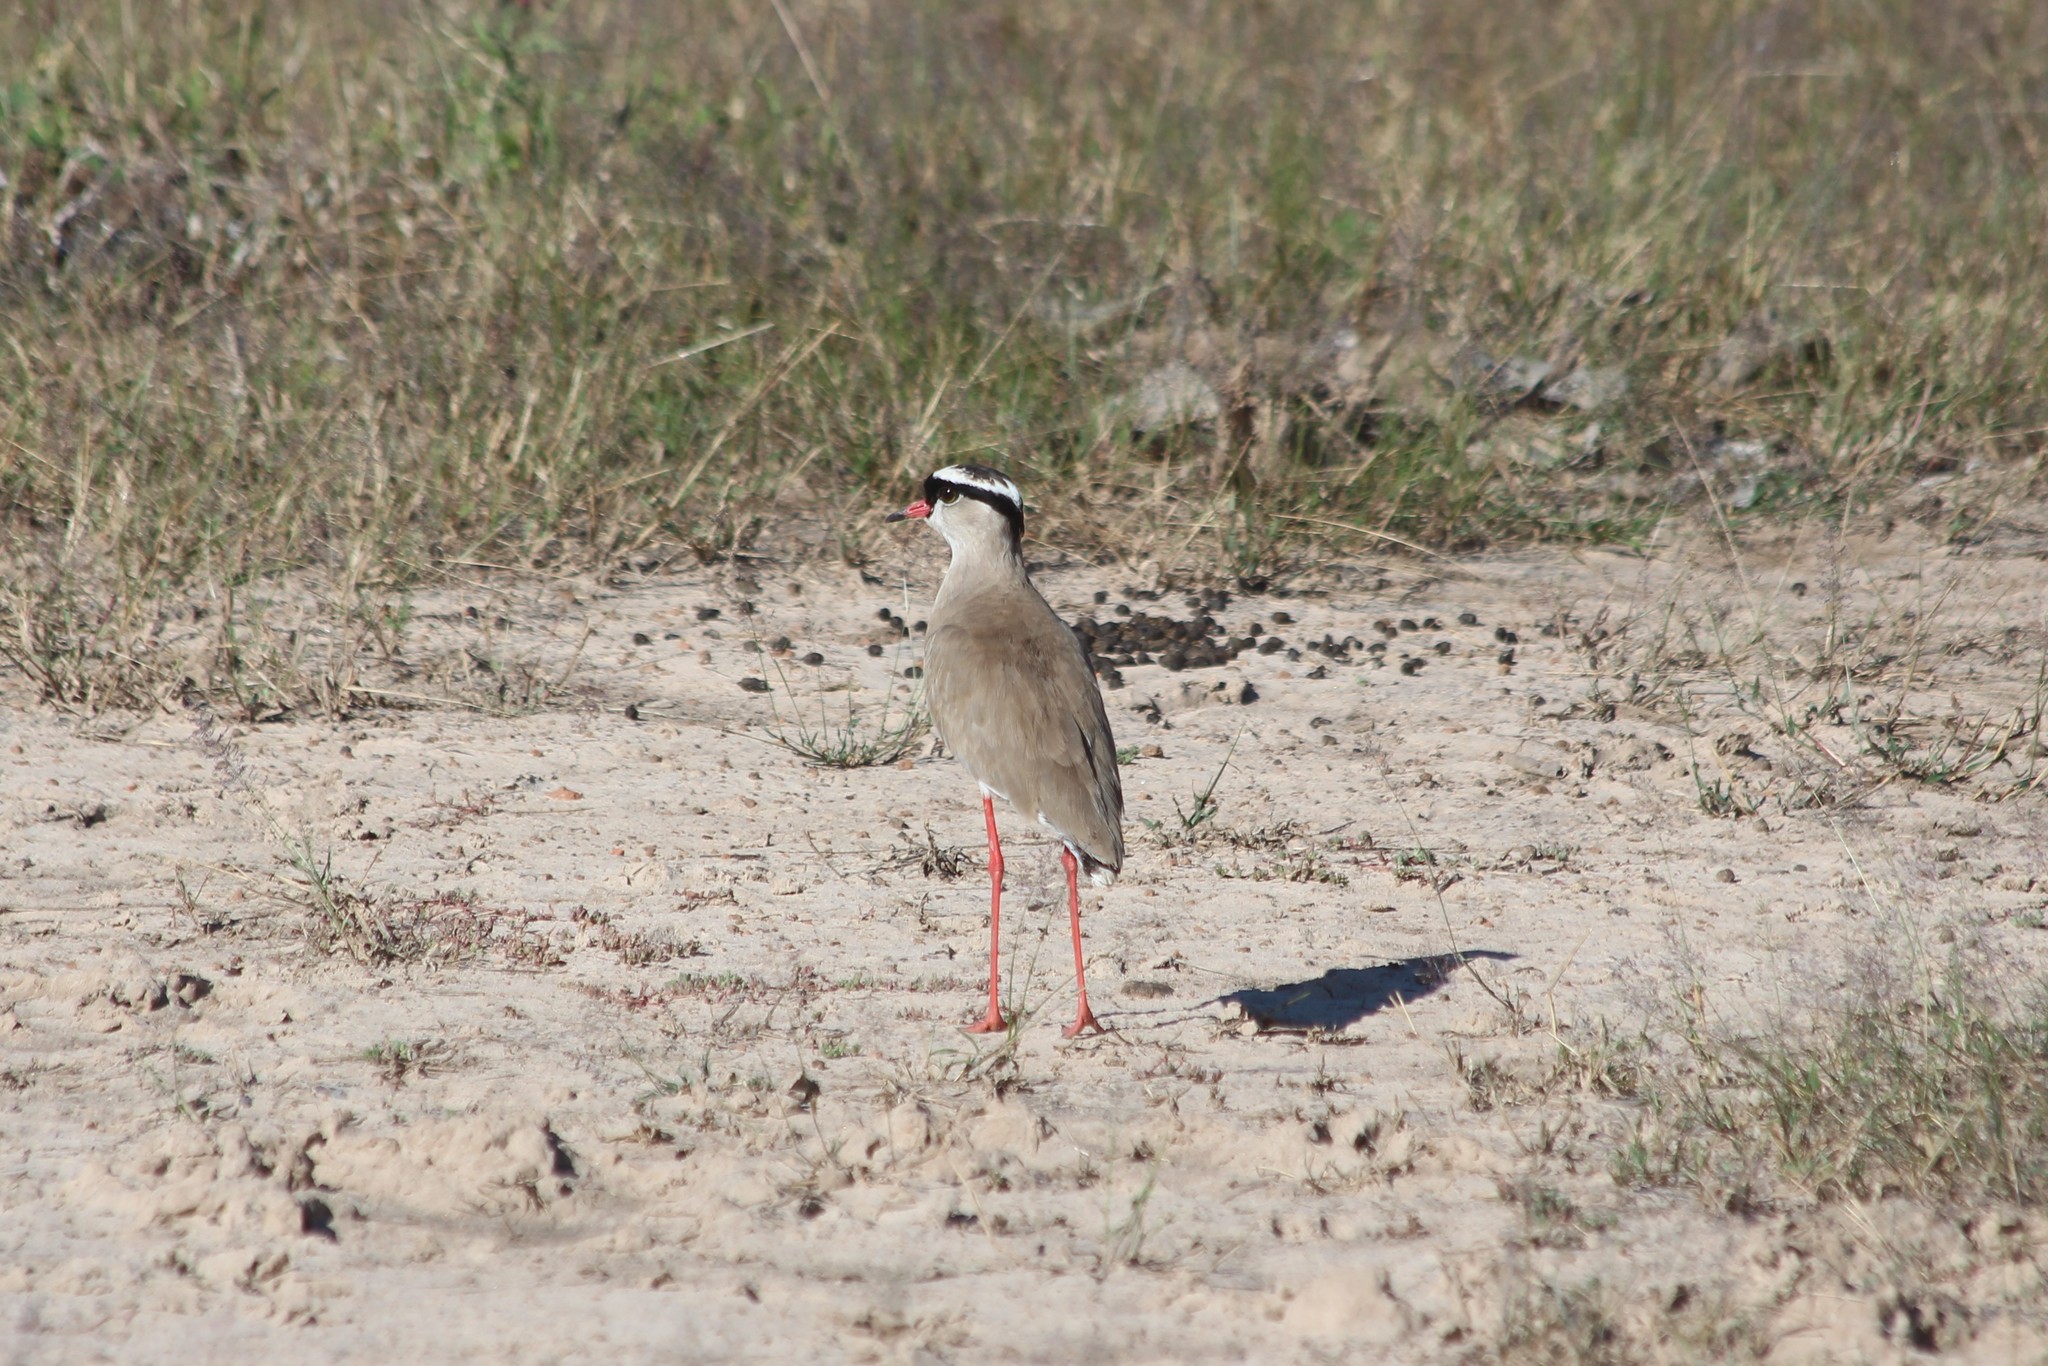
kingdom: Animalia
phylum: Chordata
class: Aves
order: Charadriiformes
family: Charadriidae
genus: Vanellus
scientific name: Vanellus coronatus
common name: Crowned lapwing
